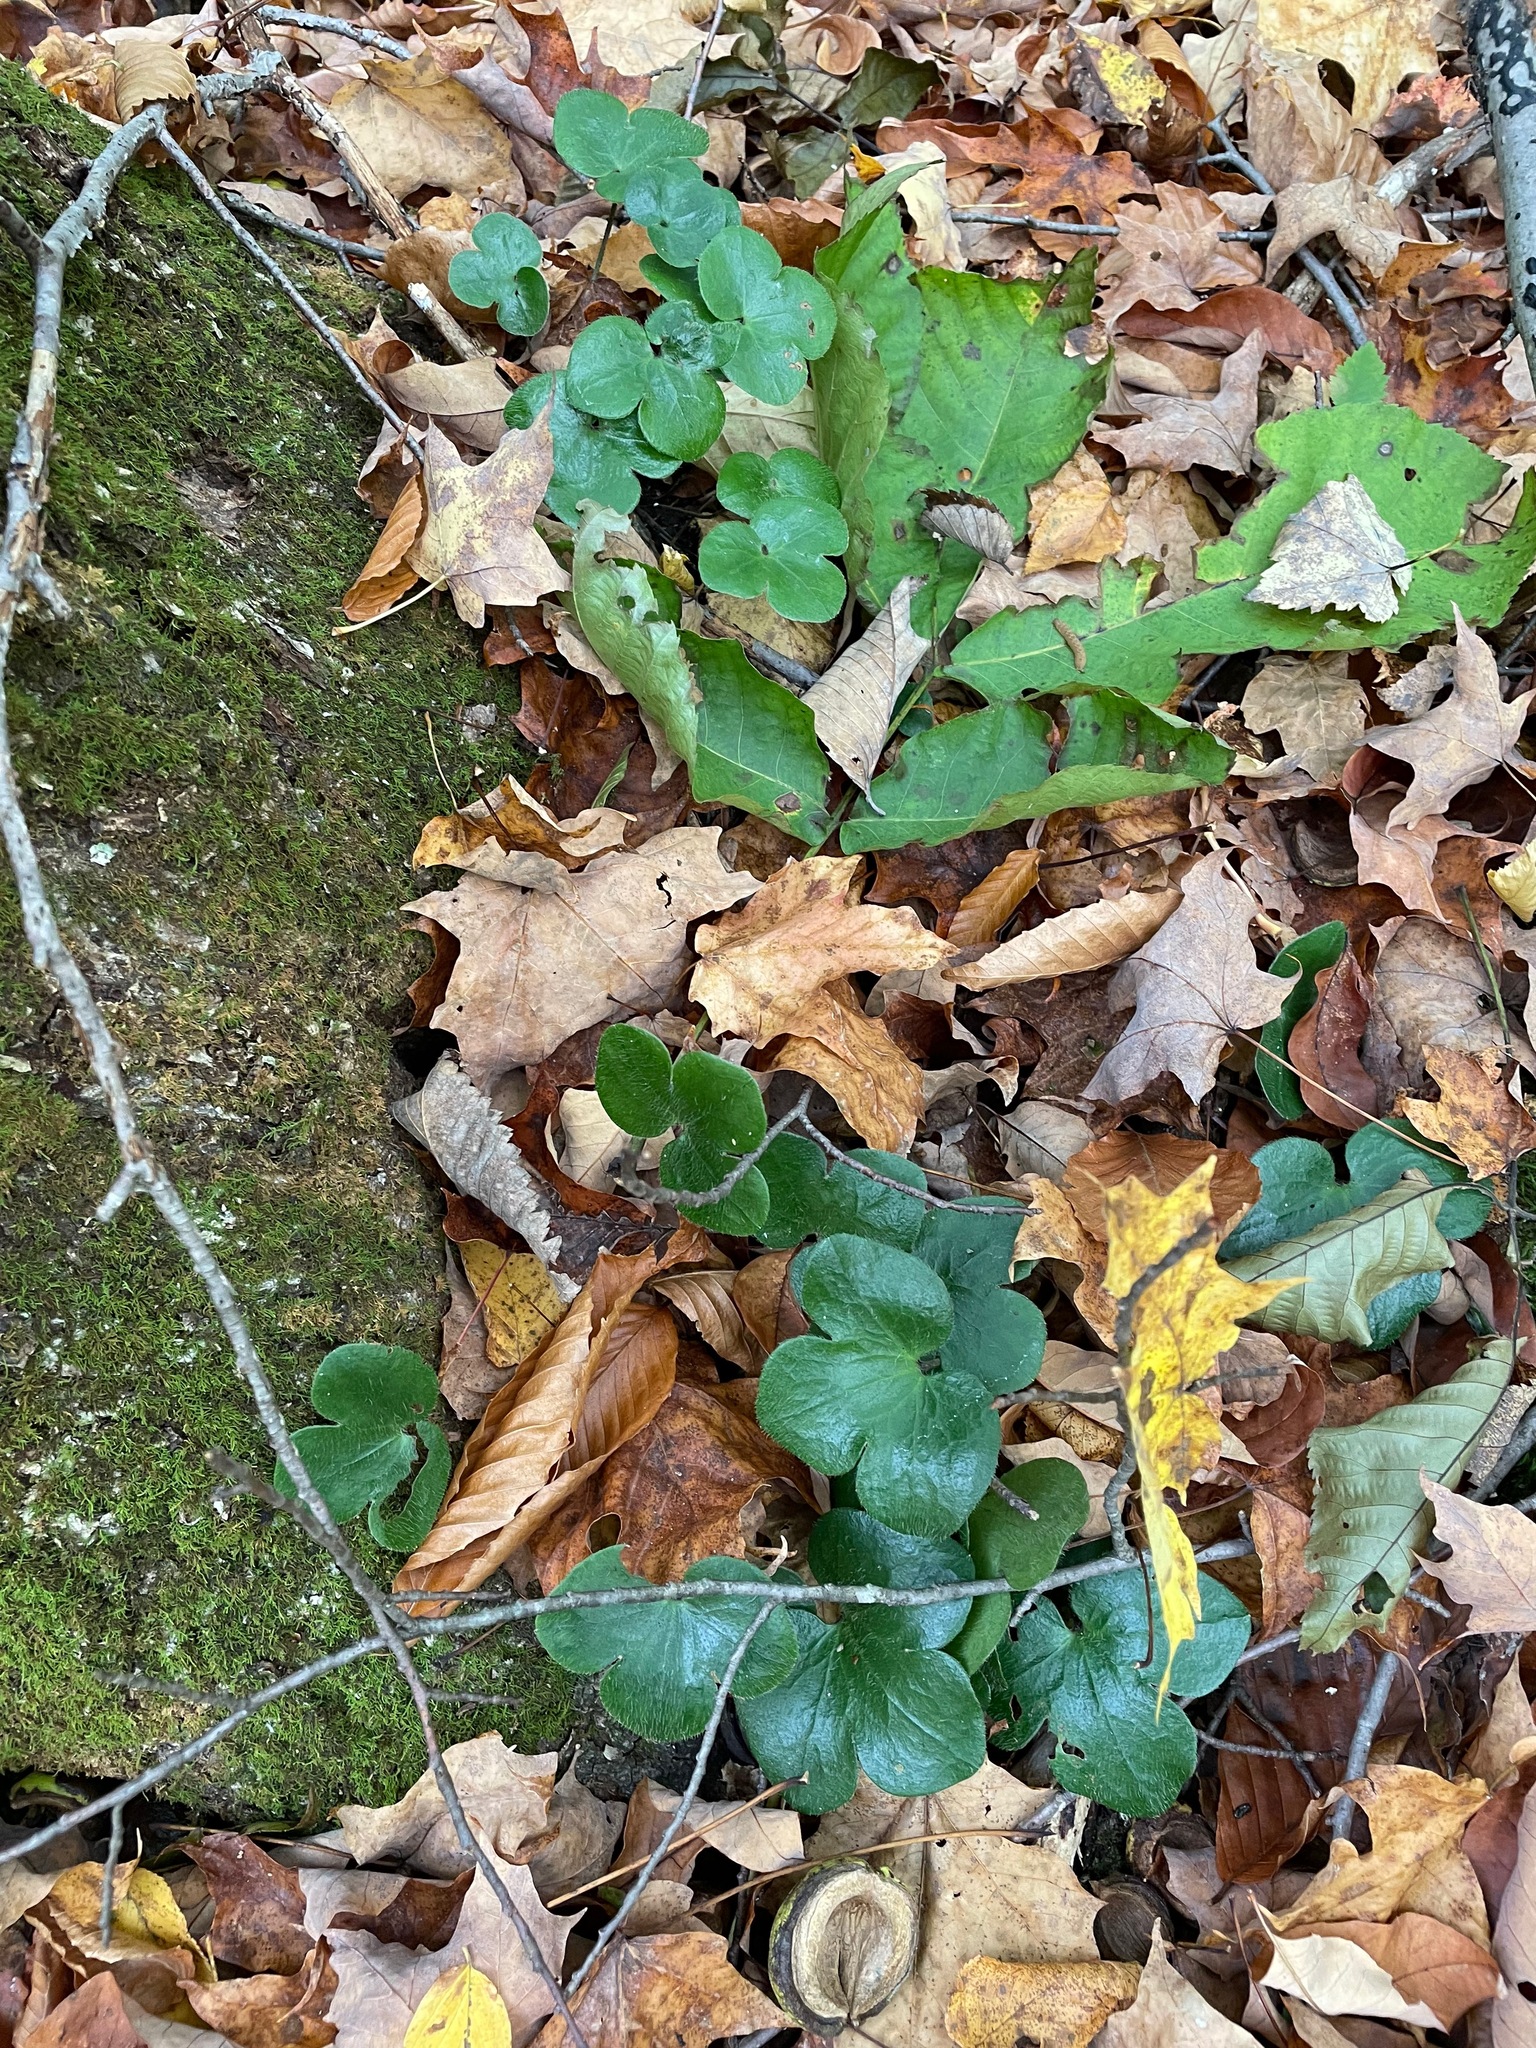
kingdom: Plantae
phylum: Tracheophyta
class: Magnoliopsida
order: Ranunculales
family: Ranunculaceae
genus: Hepatica
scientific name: Hepatica americana
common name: American hepatica
